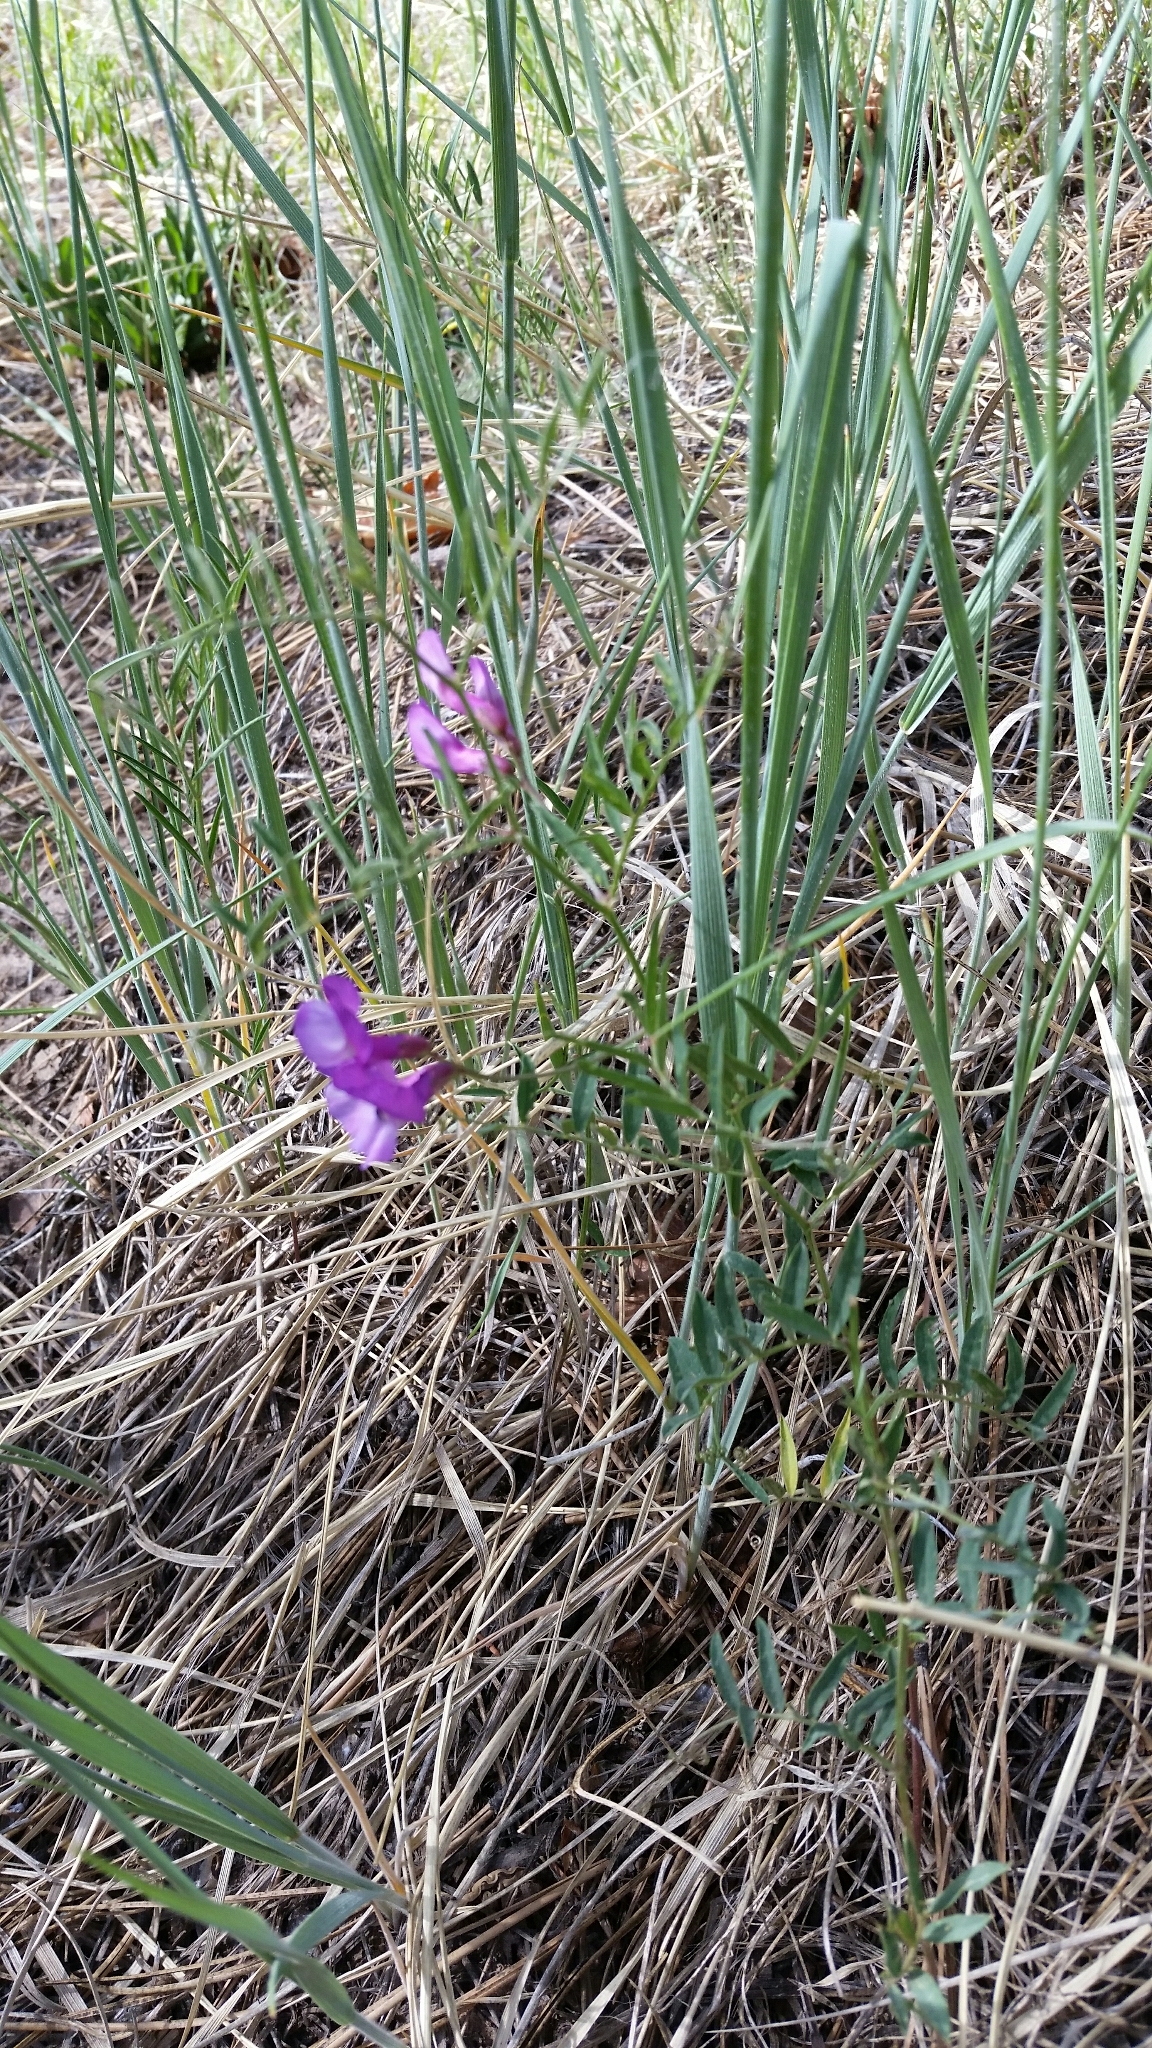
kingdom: Plantae
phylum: Tracheophyta
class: Magnoliopsida
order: Fabales
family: Fabaceae
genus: Vicia
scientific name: Vicia americana
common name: American vetch
